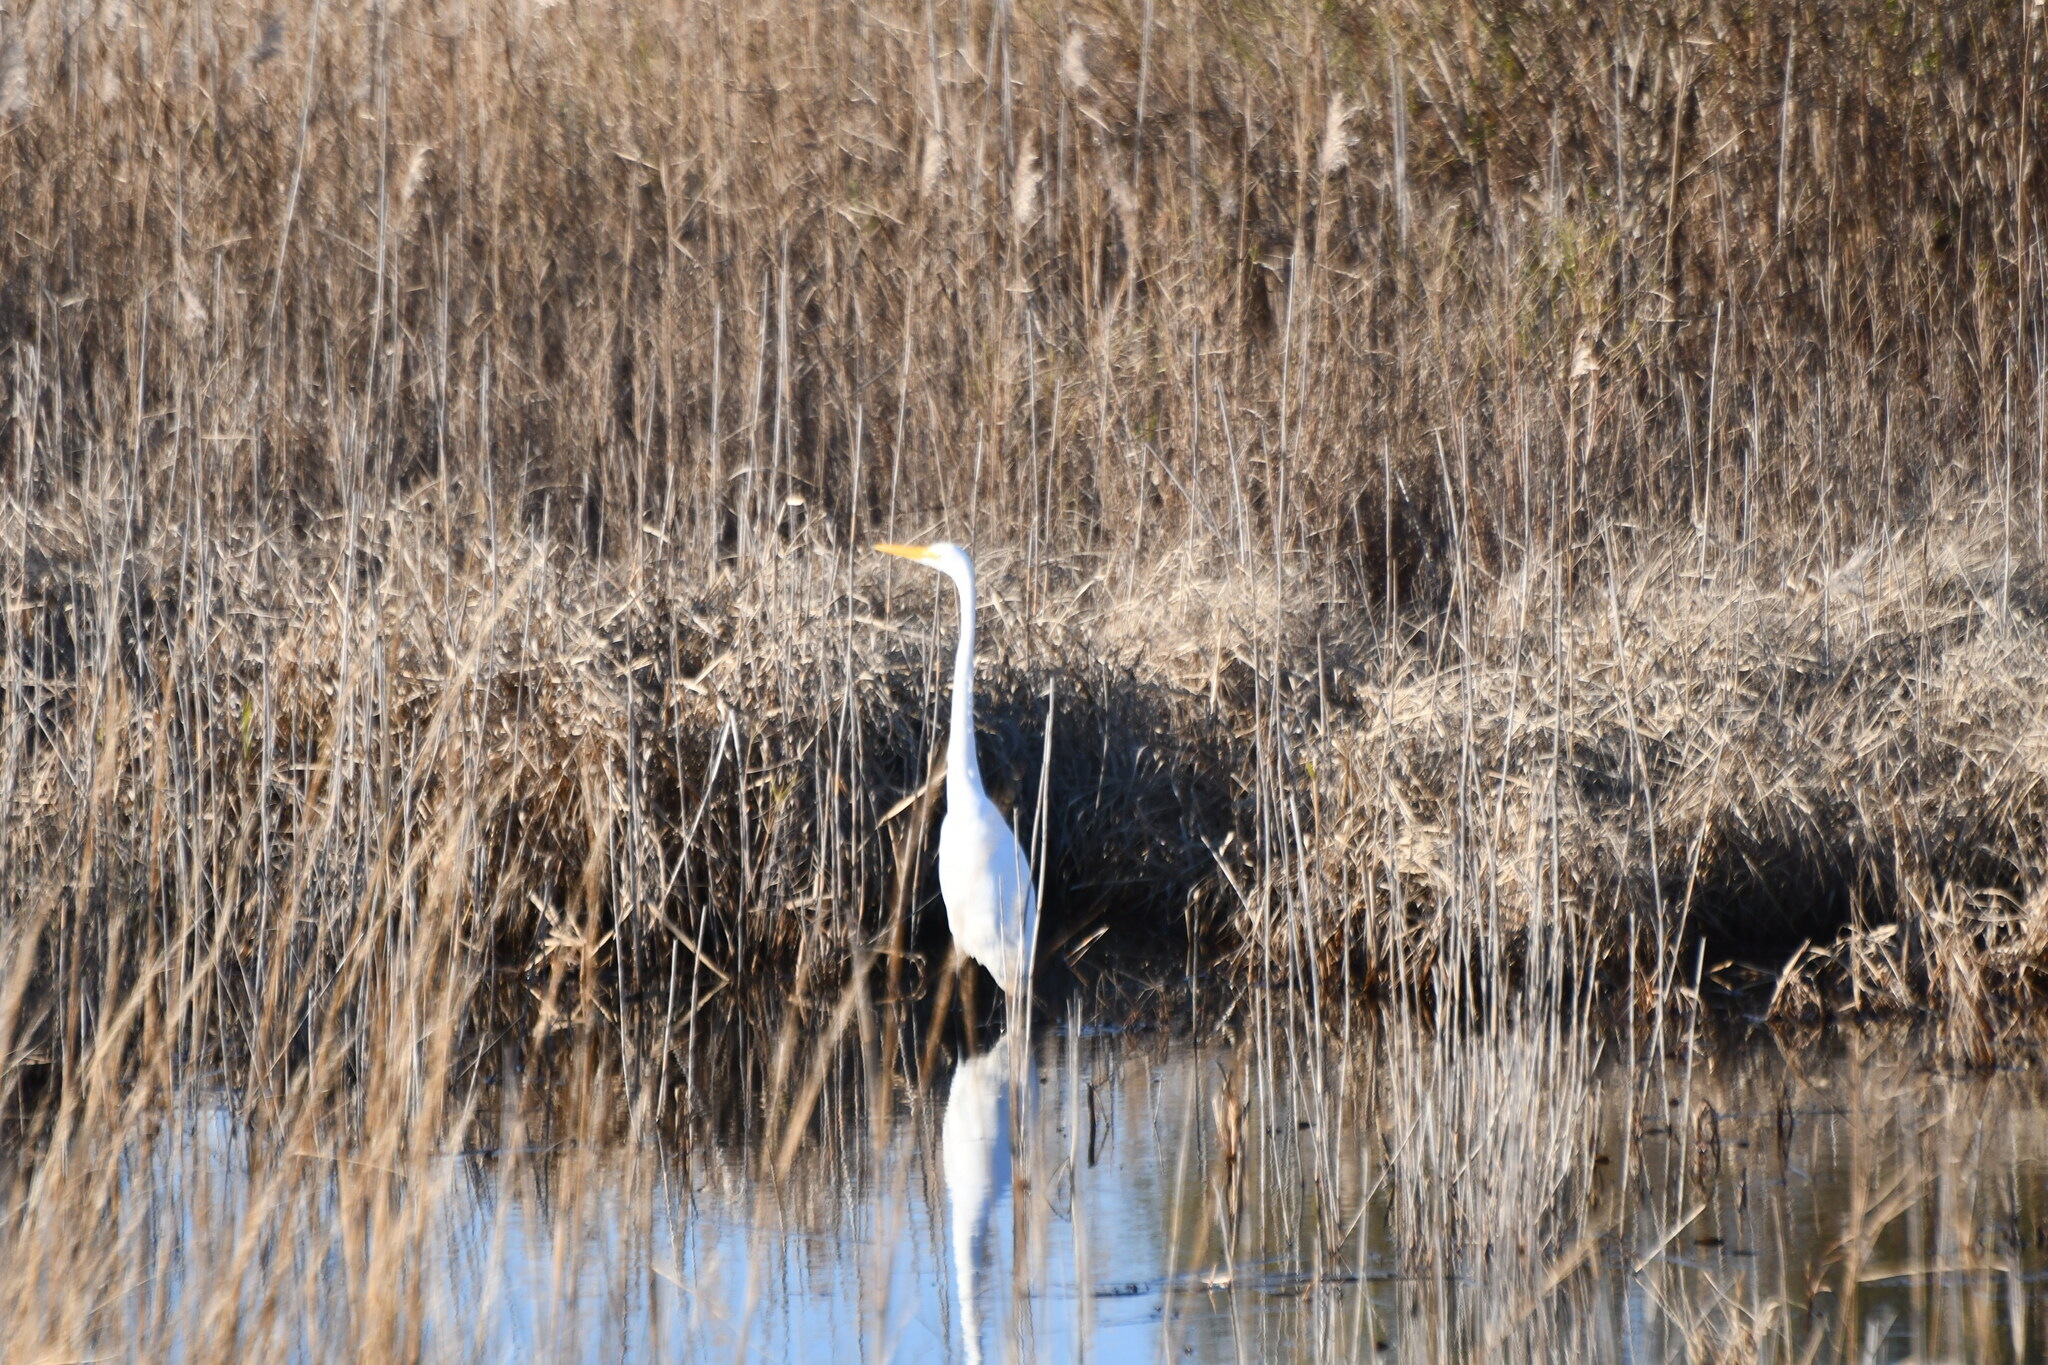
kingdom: Animalia
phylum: Chordata
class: Aves
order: Pelecaniformes
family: Ardeidae
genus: Ardea
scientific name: Ardea alba
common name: Great egret
